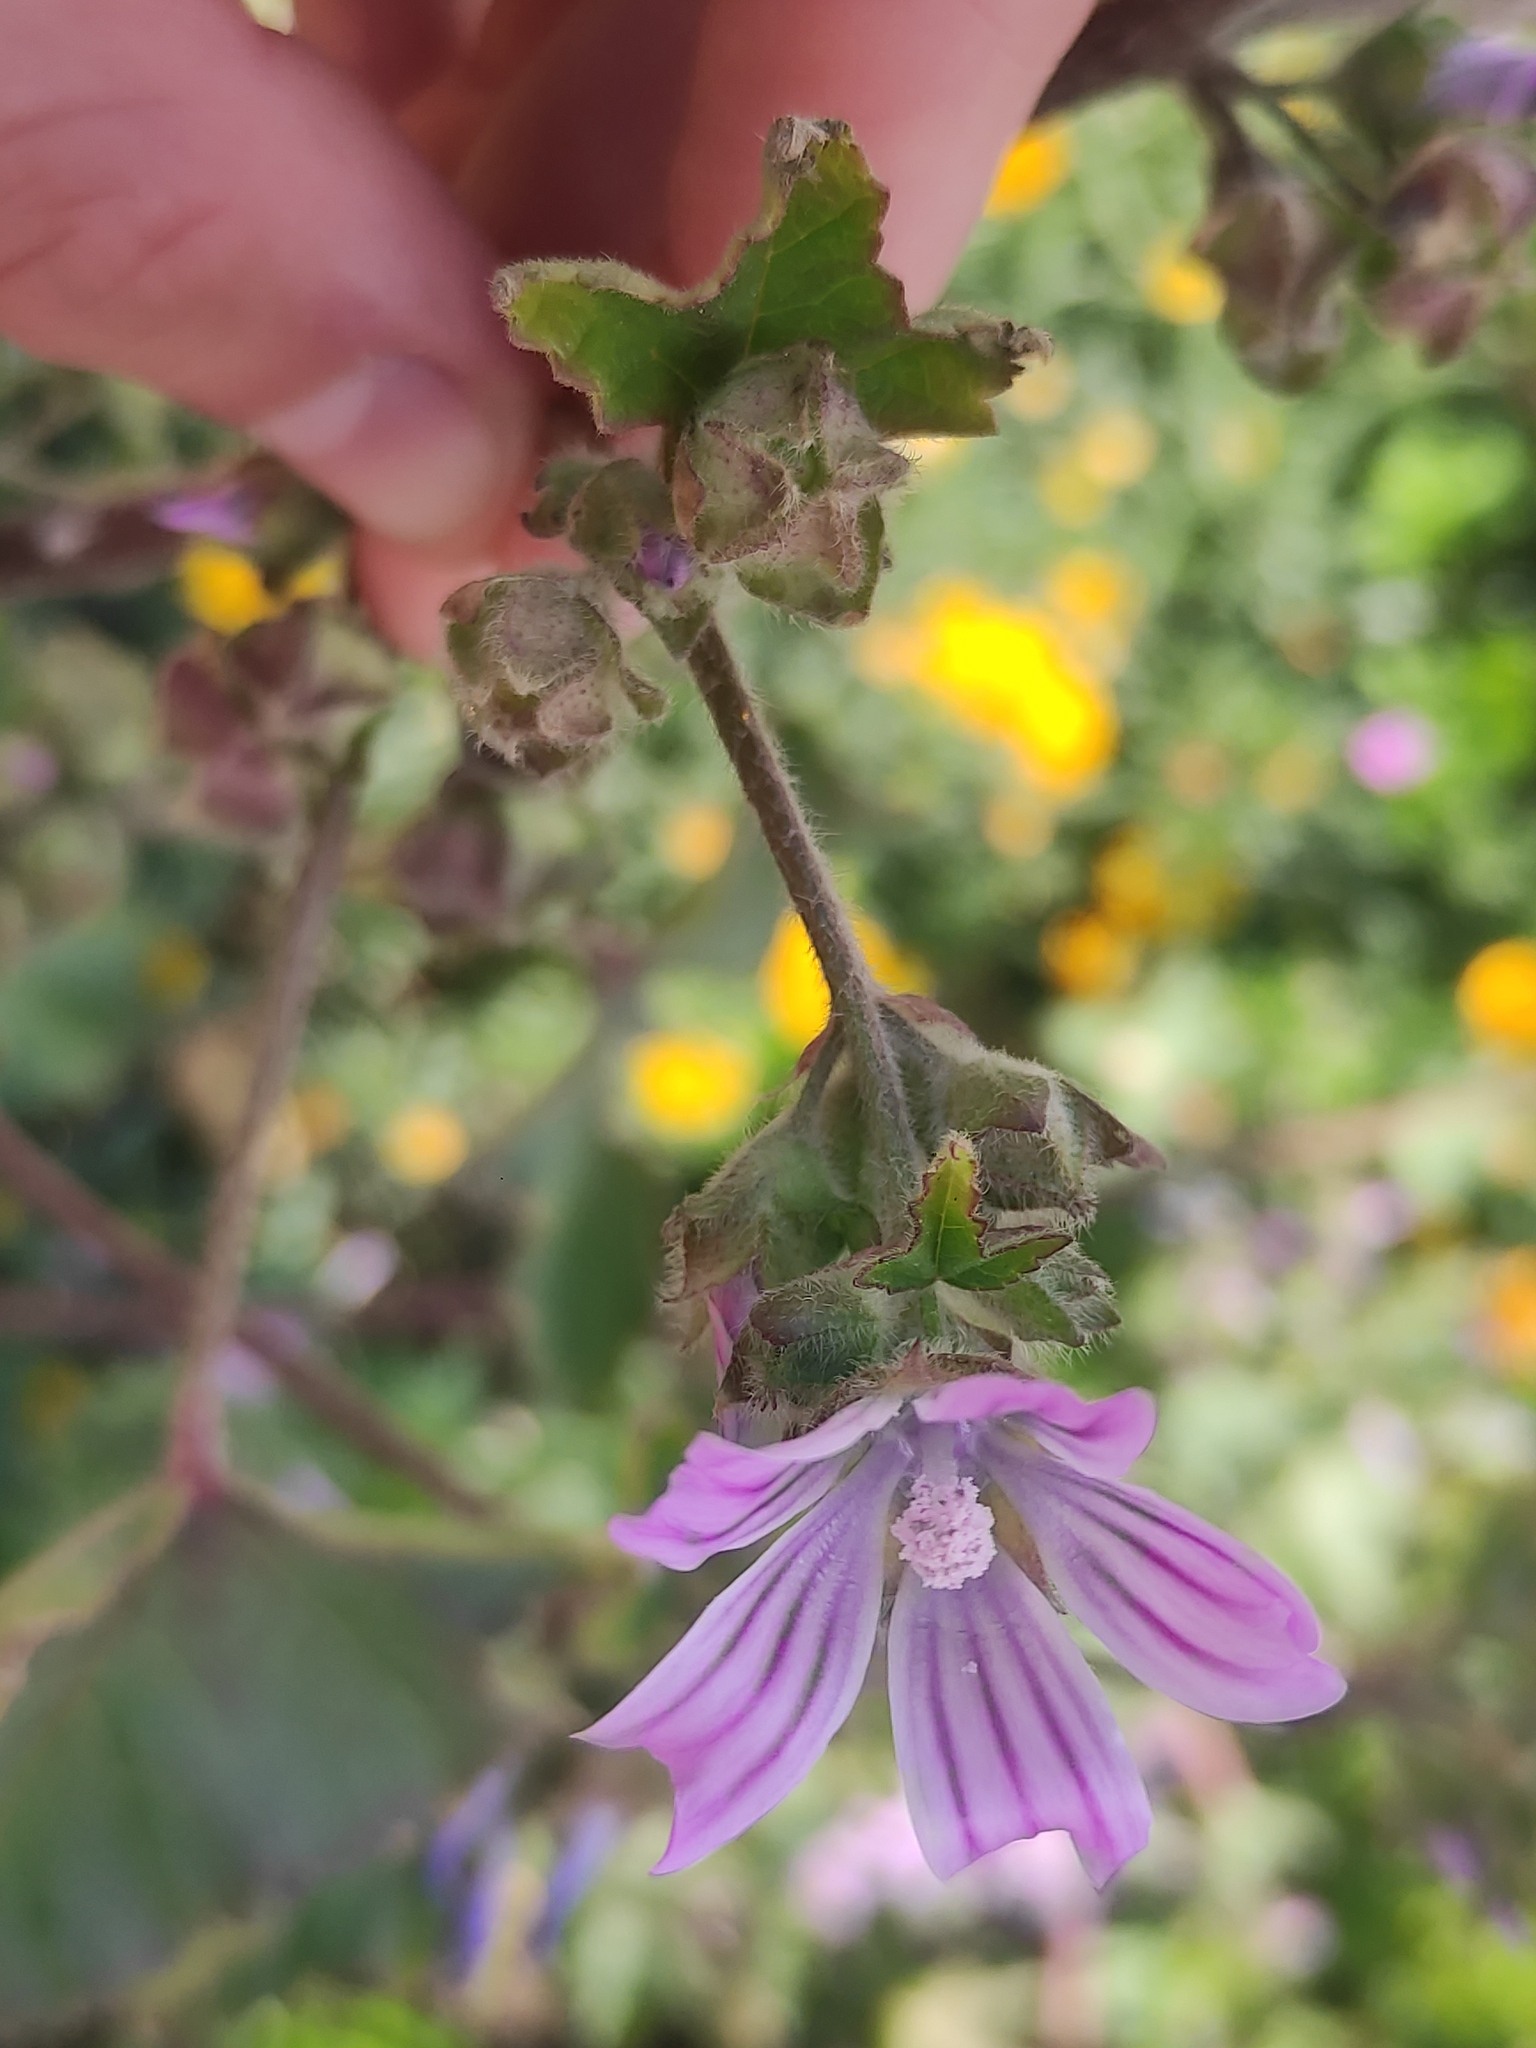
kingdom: Plantae
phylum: Tracheophyta
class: Magnoliopsida
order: Malvales
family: Malvaceae
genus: Malva
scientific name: Malva multiflora
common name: Cheeseweed
